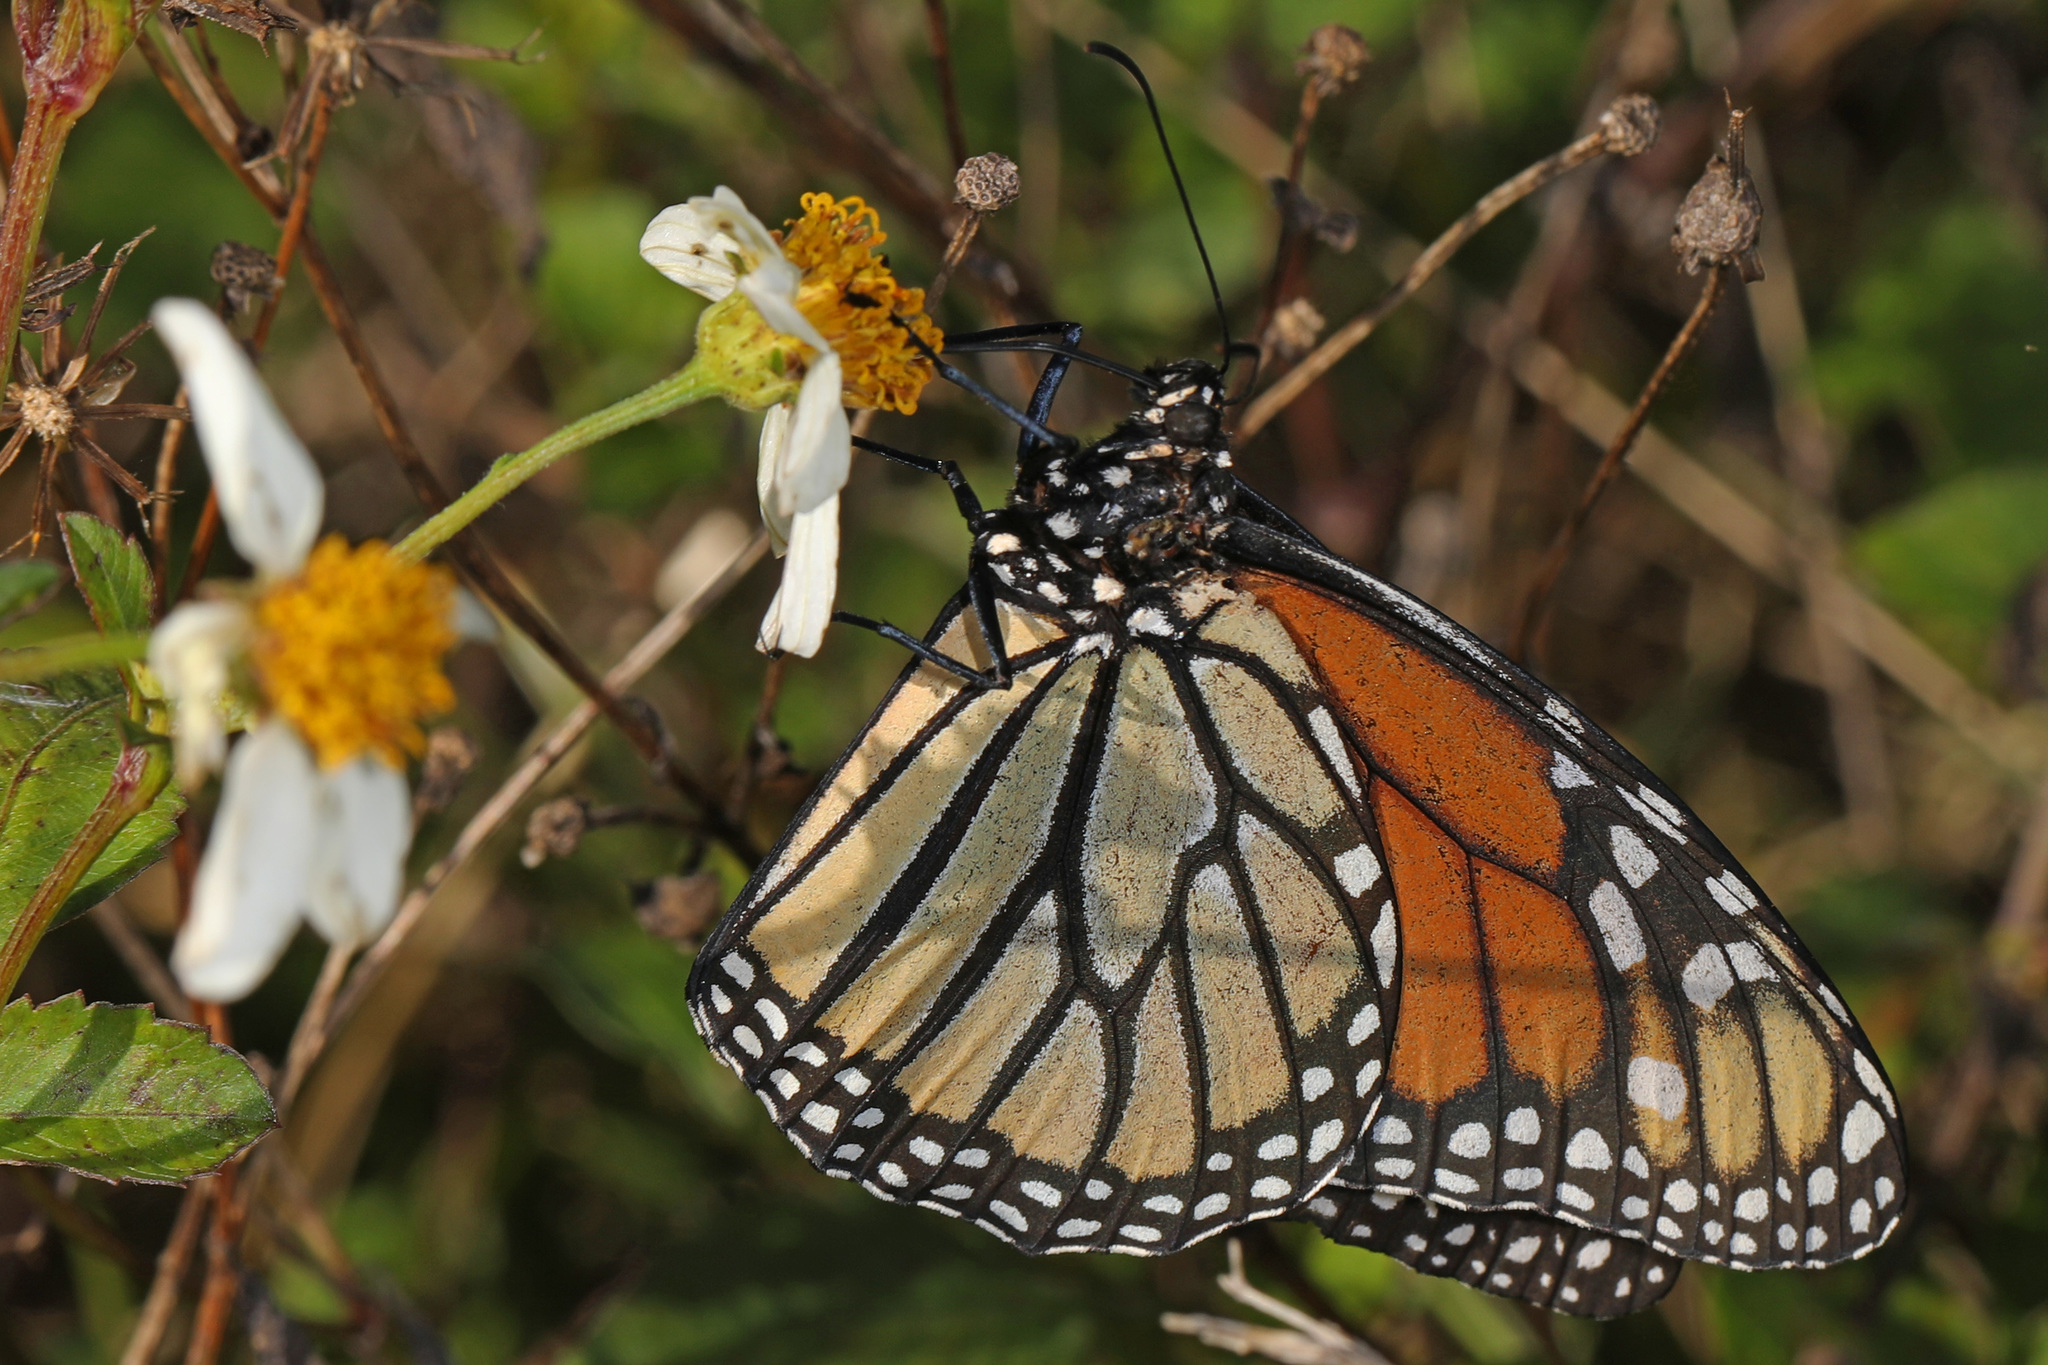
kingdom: Animalia
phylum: Arthropoda
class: Insecta
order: Lepidoptera
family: Nymphalidae
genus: Danaus
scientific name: Danaus plexippus
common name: Monarch
